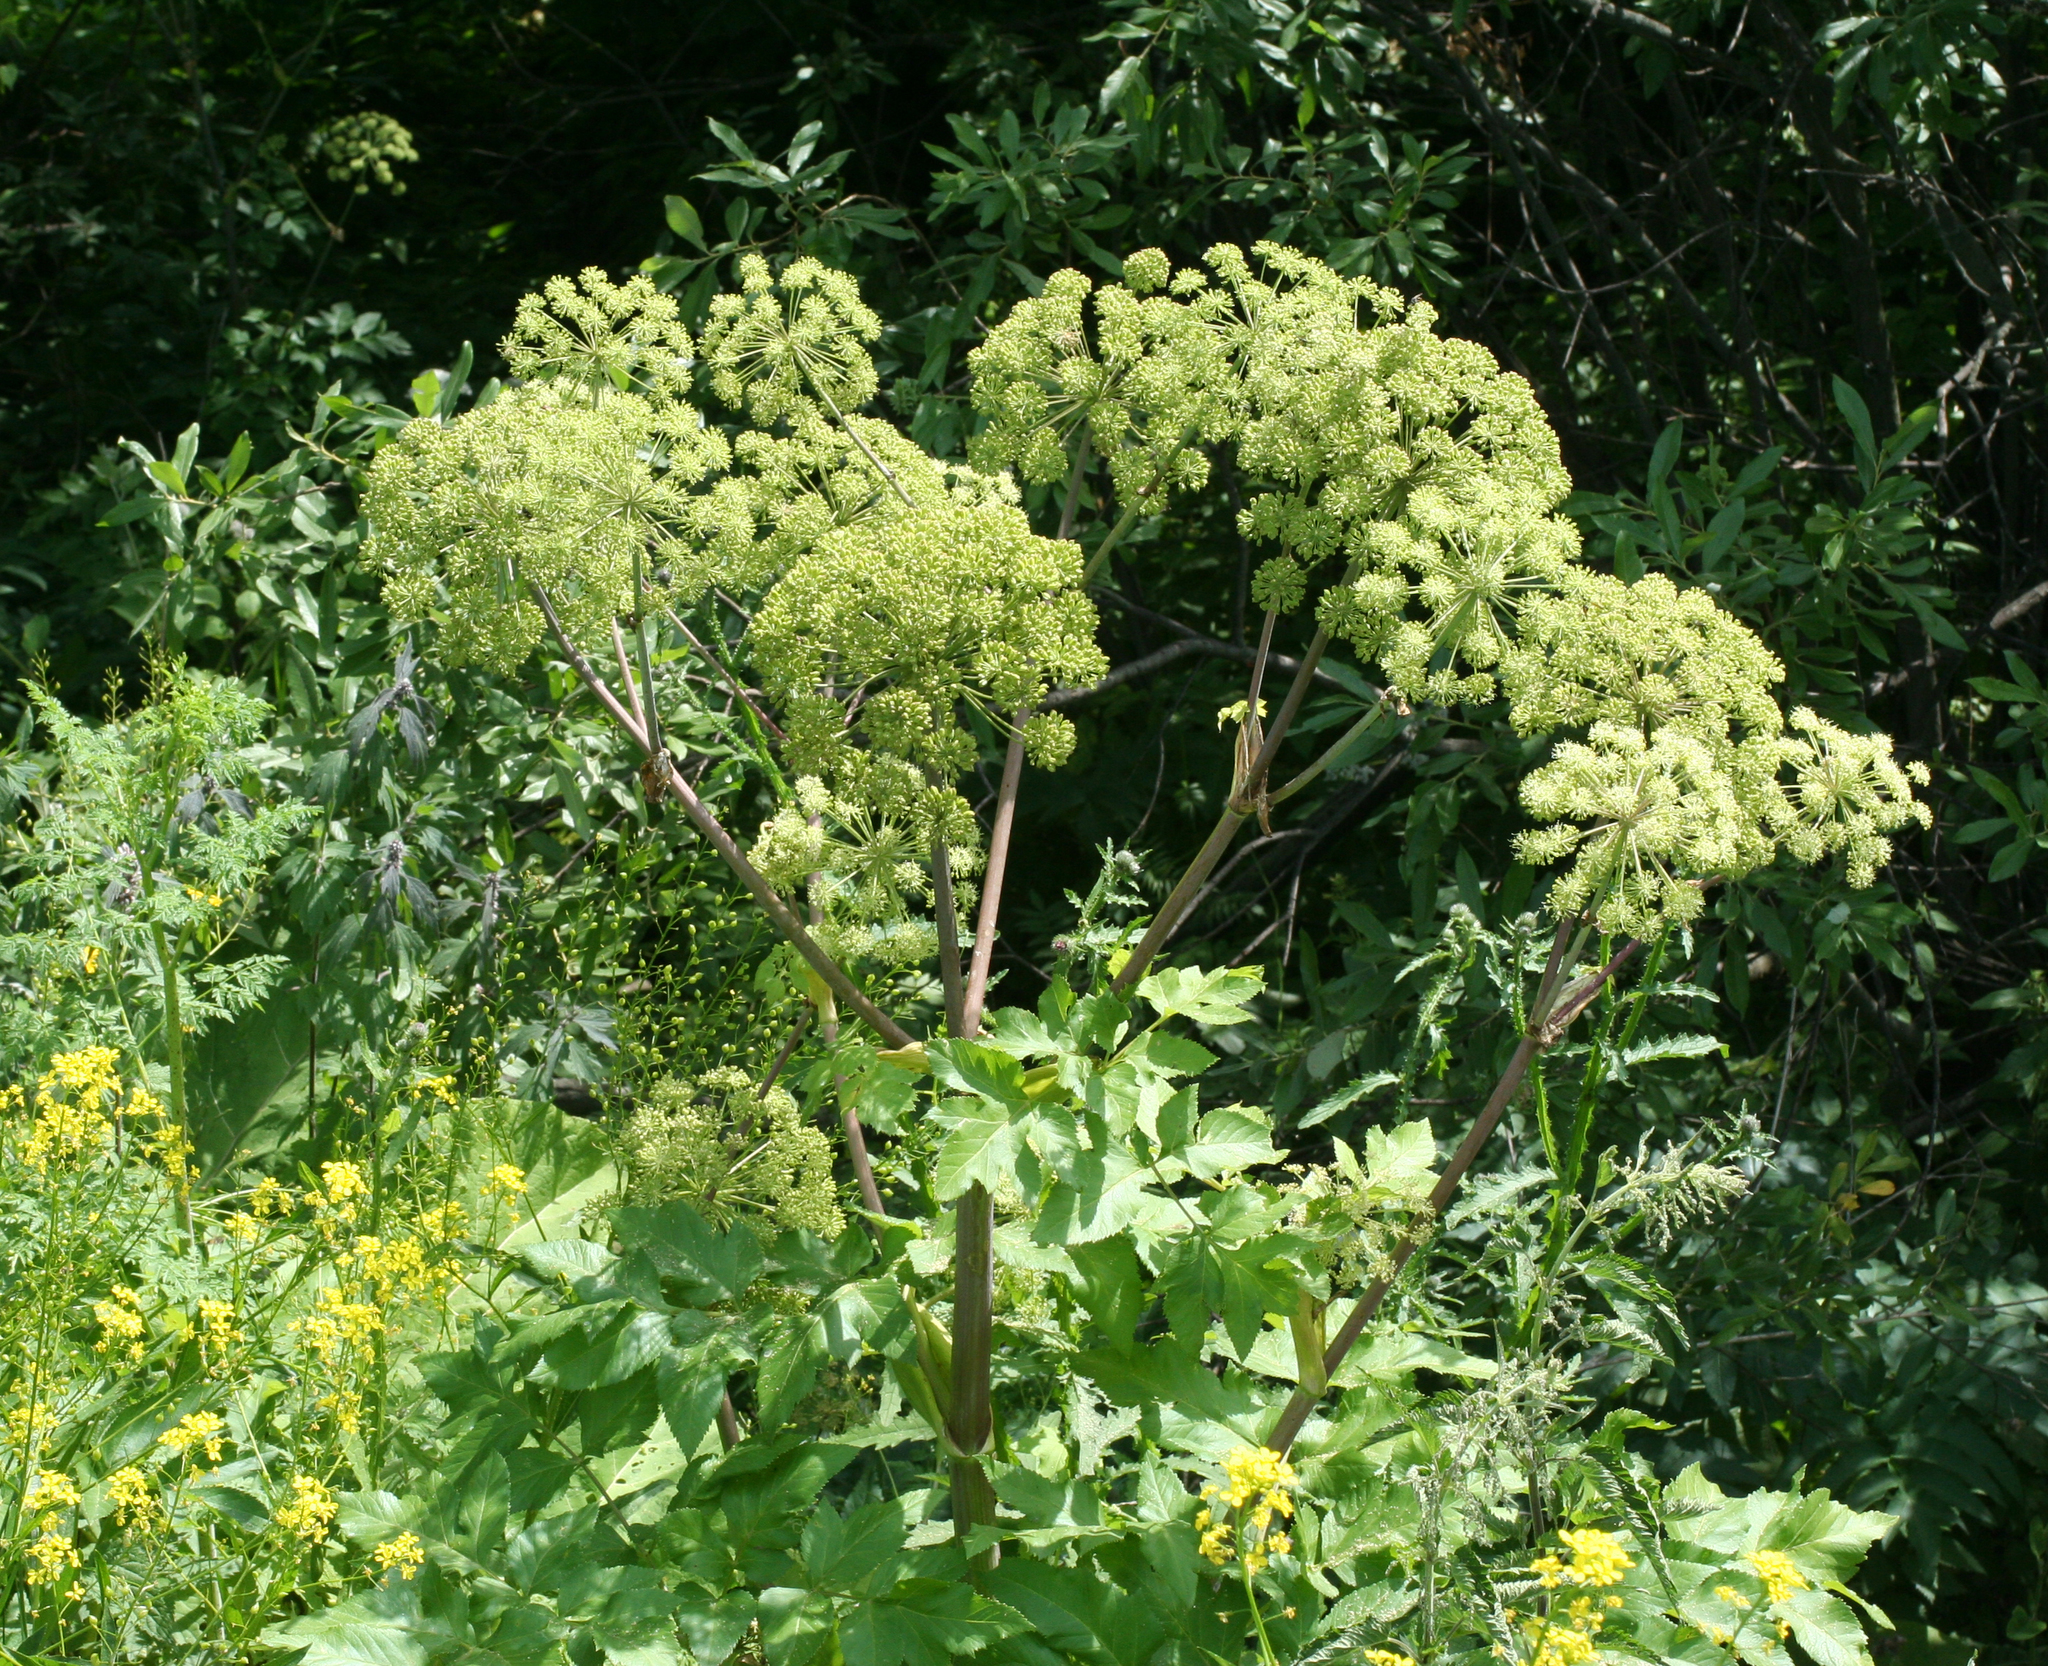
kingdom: Plantae
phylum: Tracheophyta
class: Magnoliopsida
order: Apiales
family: Apiaceae
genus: Angelica
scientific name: Angelica decurrens
